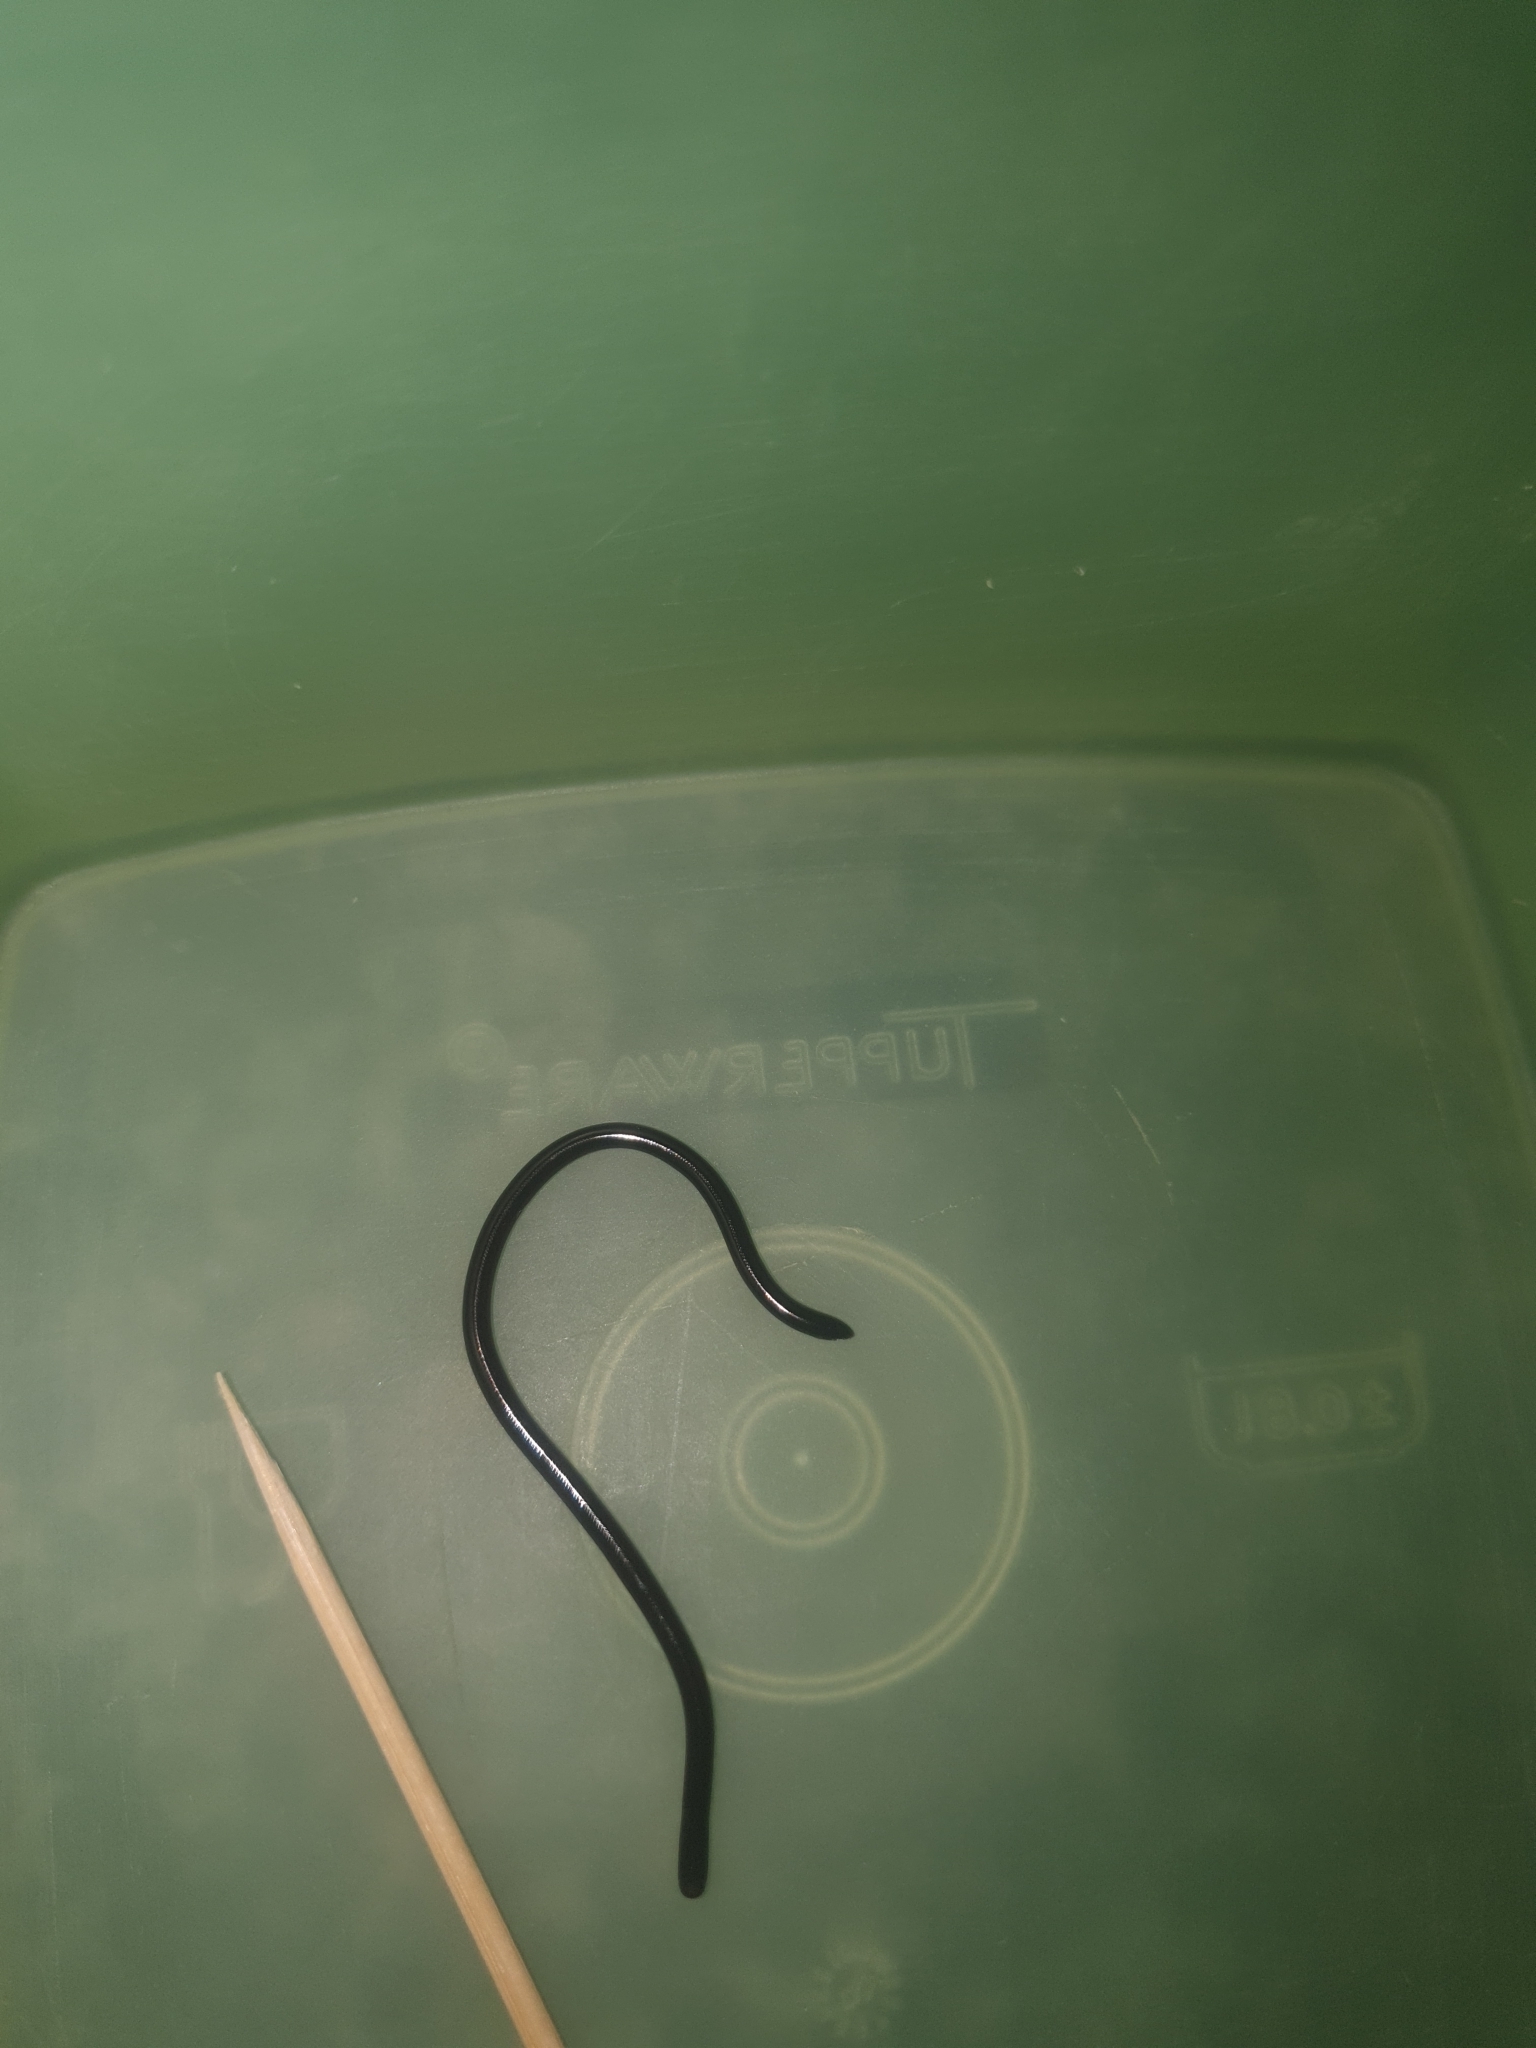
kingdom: Animalia
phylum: Chordata
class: Squamata
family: Typhlopidae
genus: Indotyphlops
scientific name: Indotyphlops braminus
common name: Brahminy blindsnake
